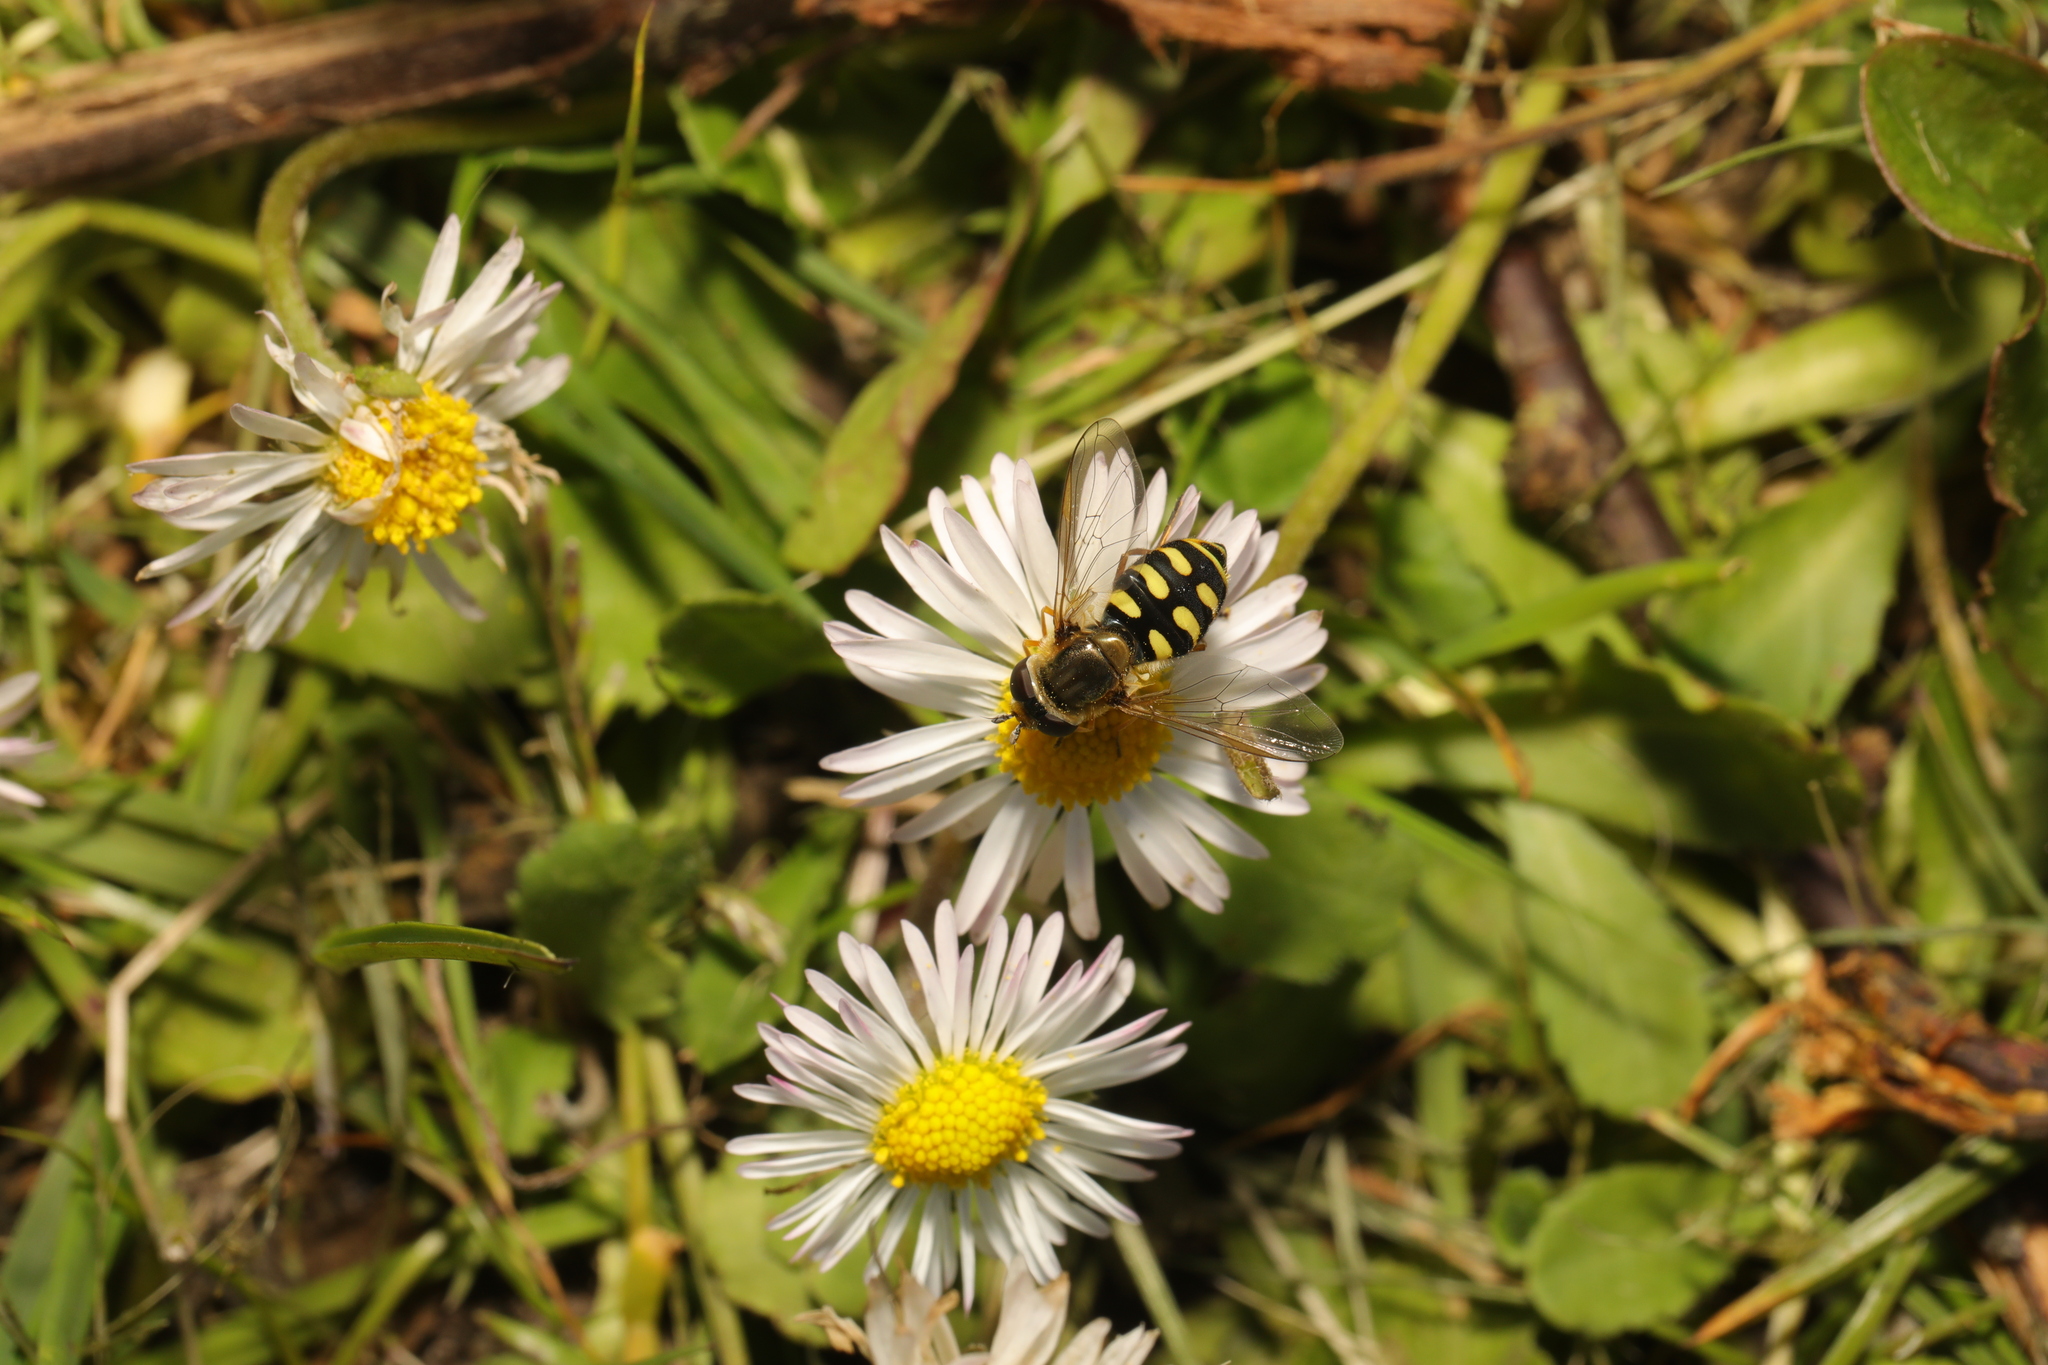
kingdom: Animalia
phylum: Arthropoda
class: Insecta
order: Diptera
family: Syrphidae
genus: Eupeodes
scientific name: Eupeodes
